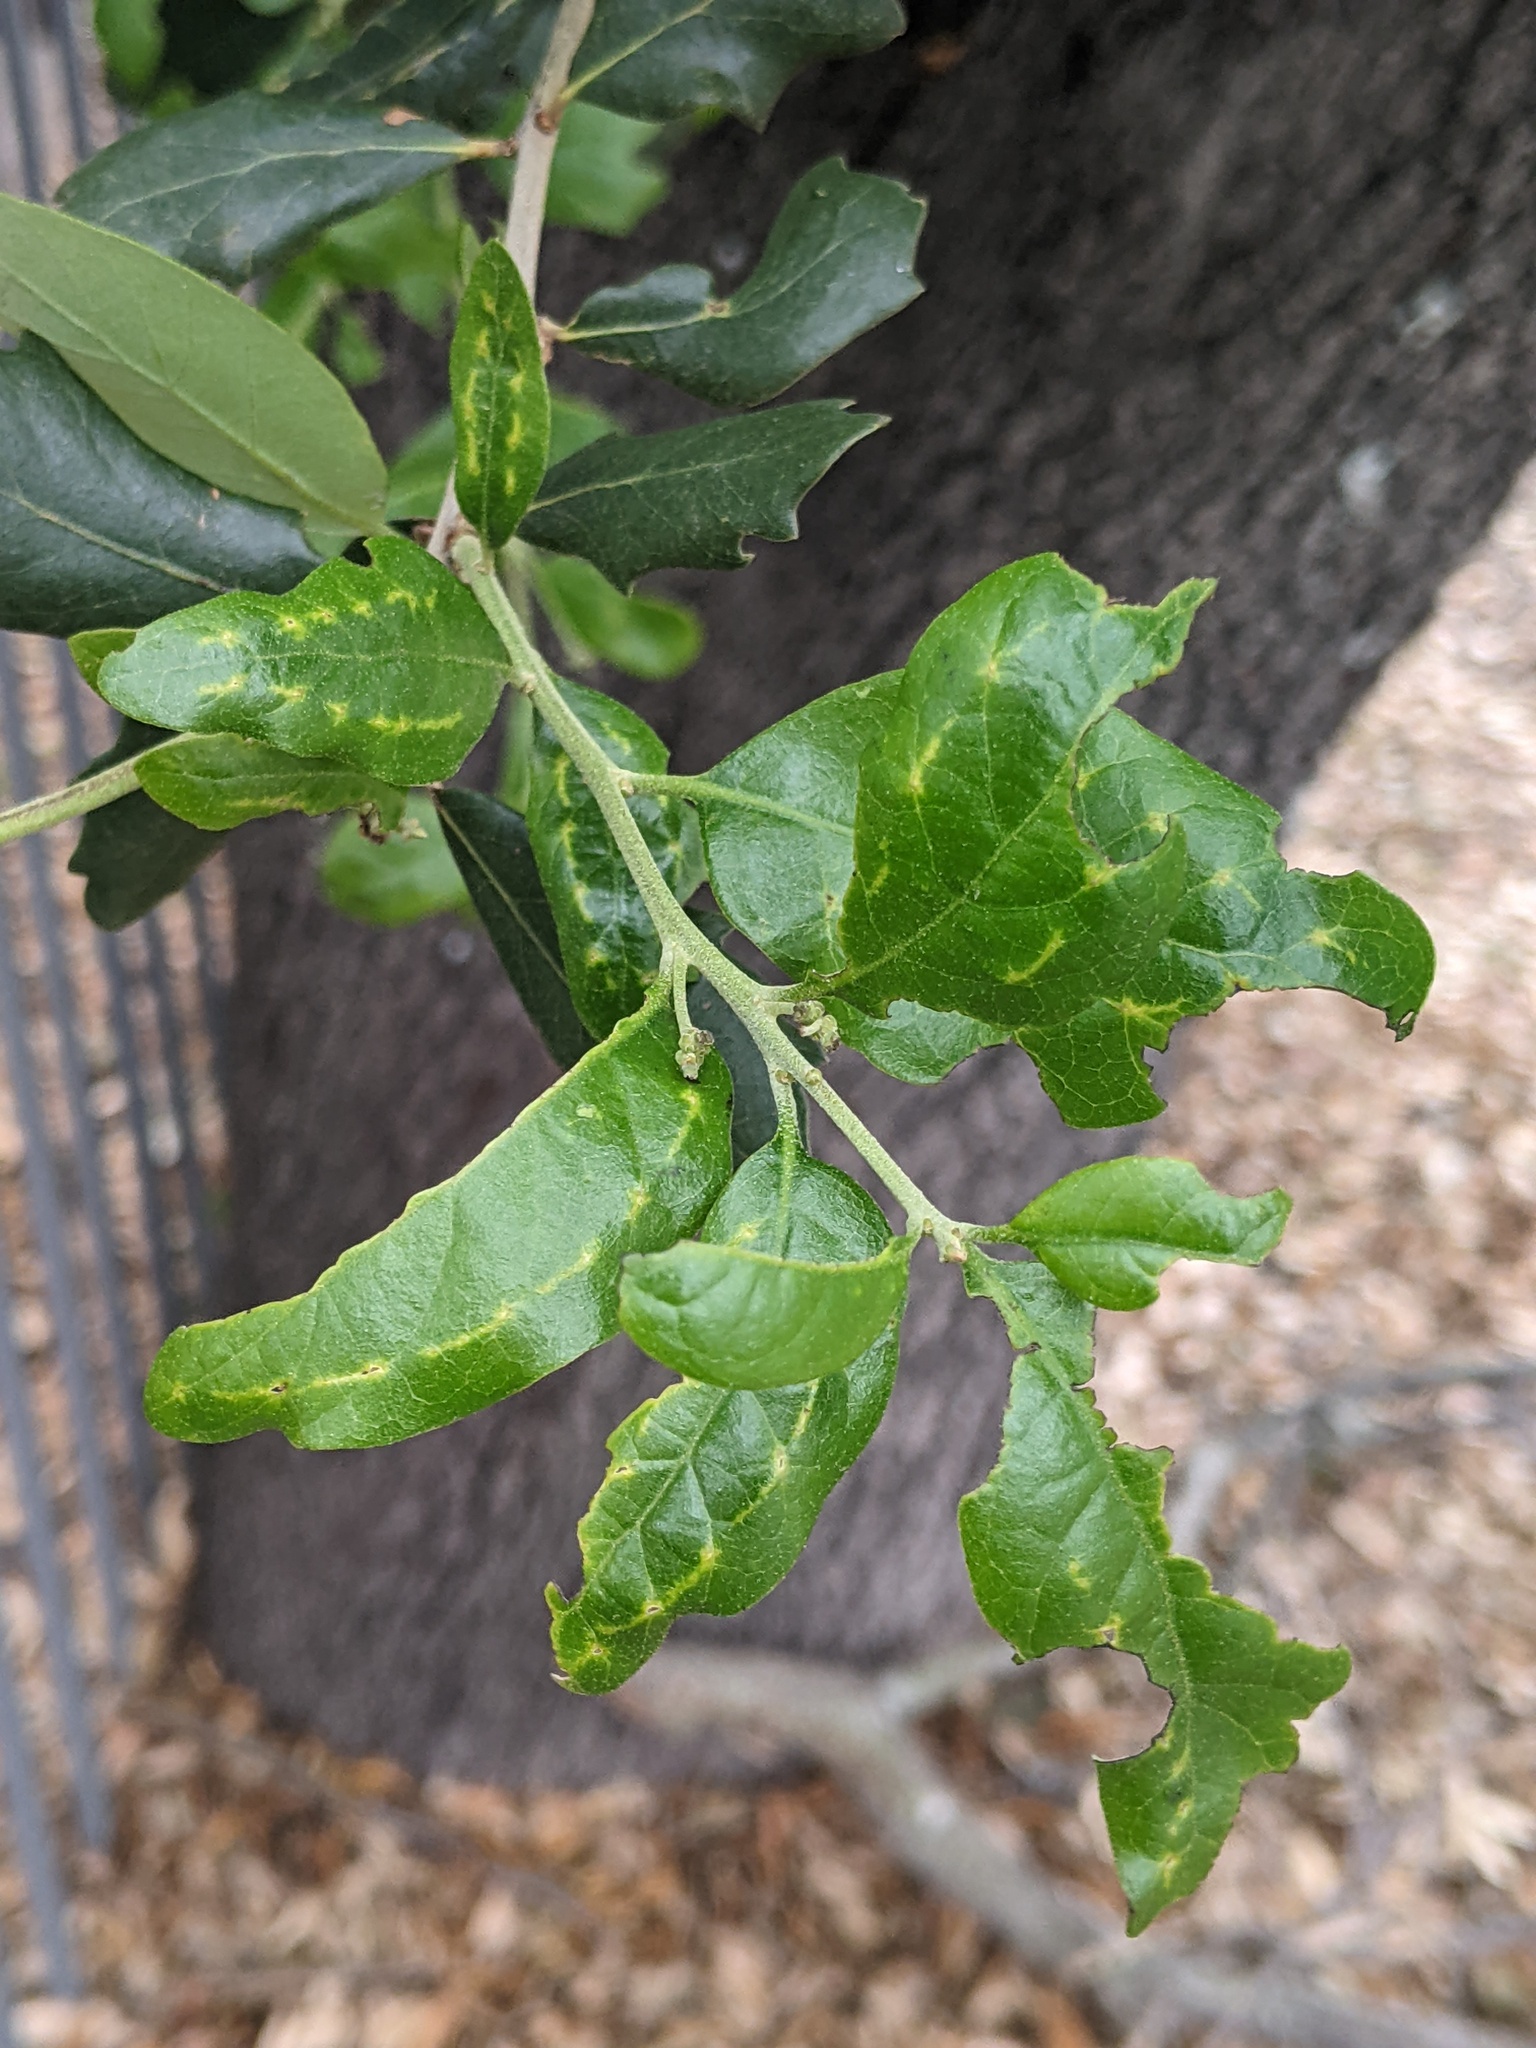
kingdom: Animalia
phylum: Arthropoda
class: Insecta
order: Hymenoptera
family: Cynipidae
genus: Belonocnema
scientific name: Belonocnema kinseyi
